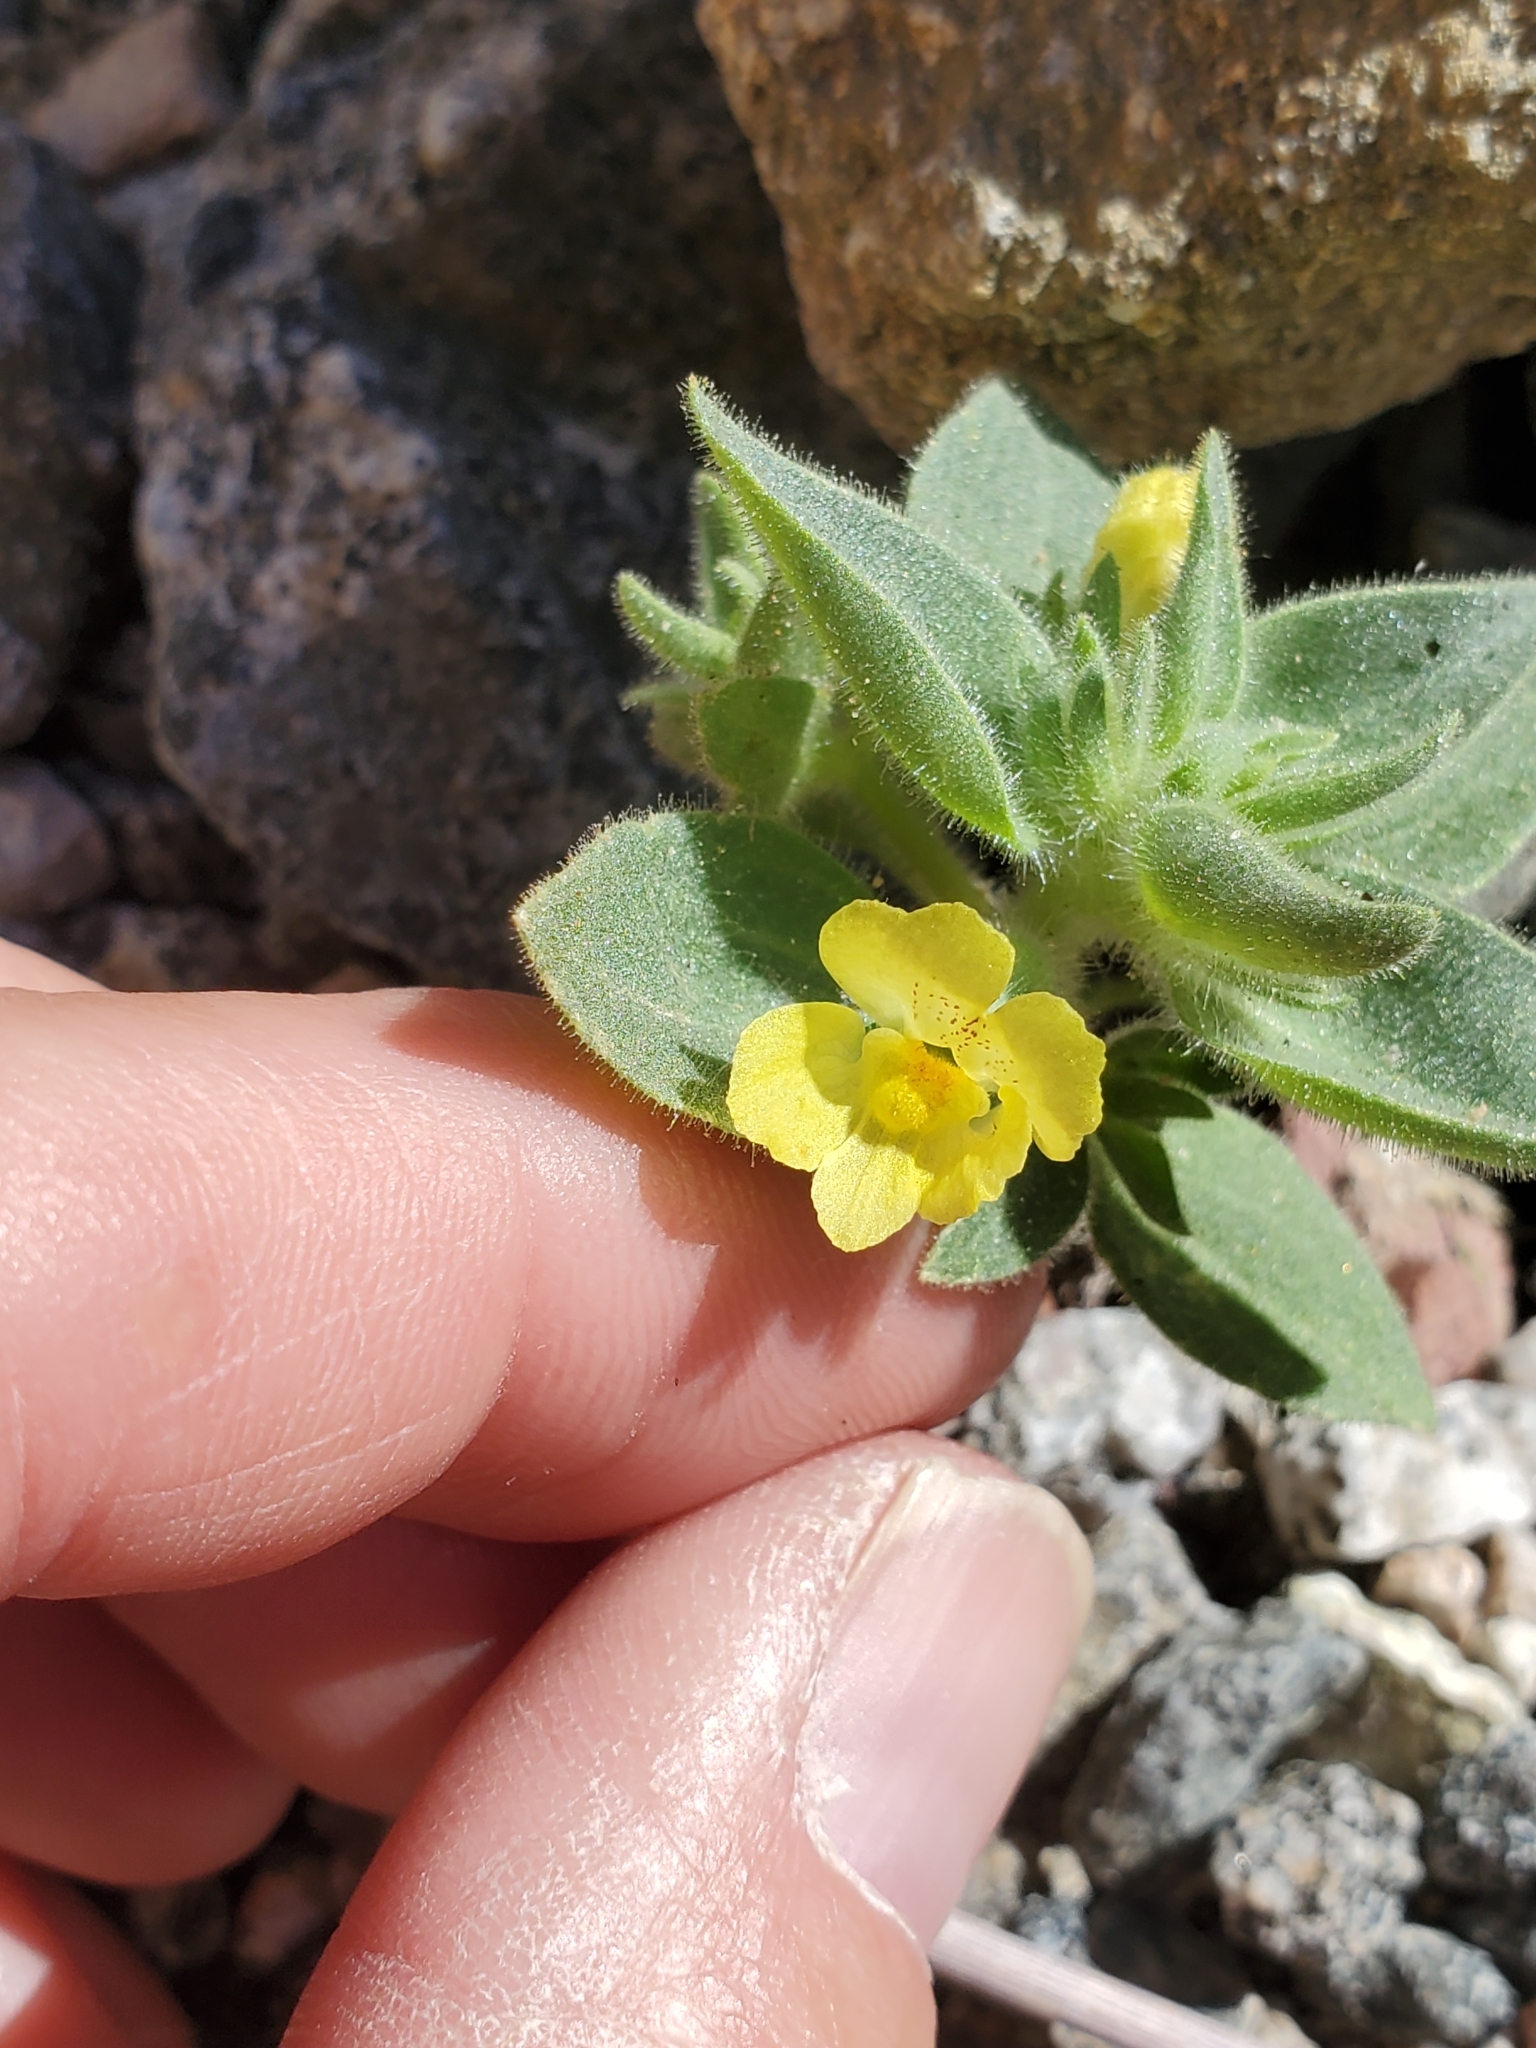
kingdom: Plantae
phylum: Tracheophyta
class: Magnoliopsida
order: Lamiales
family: Plantaginaceae
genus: Mohavea
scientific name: Mohavea breviflora
